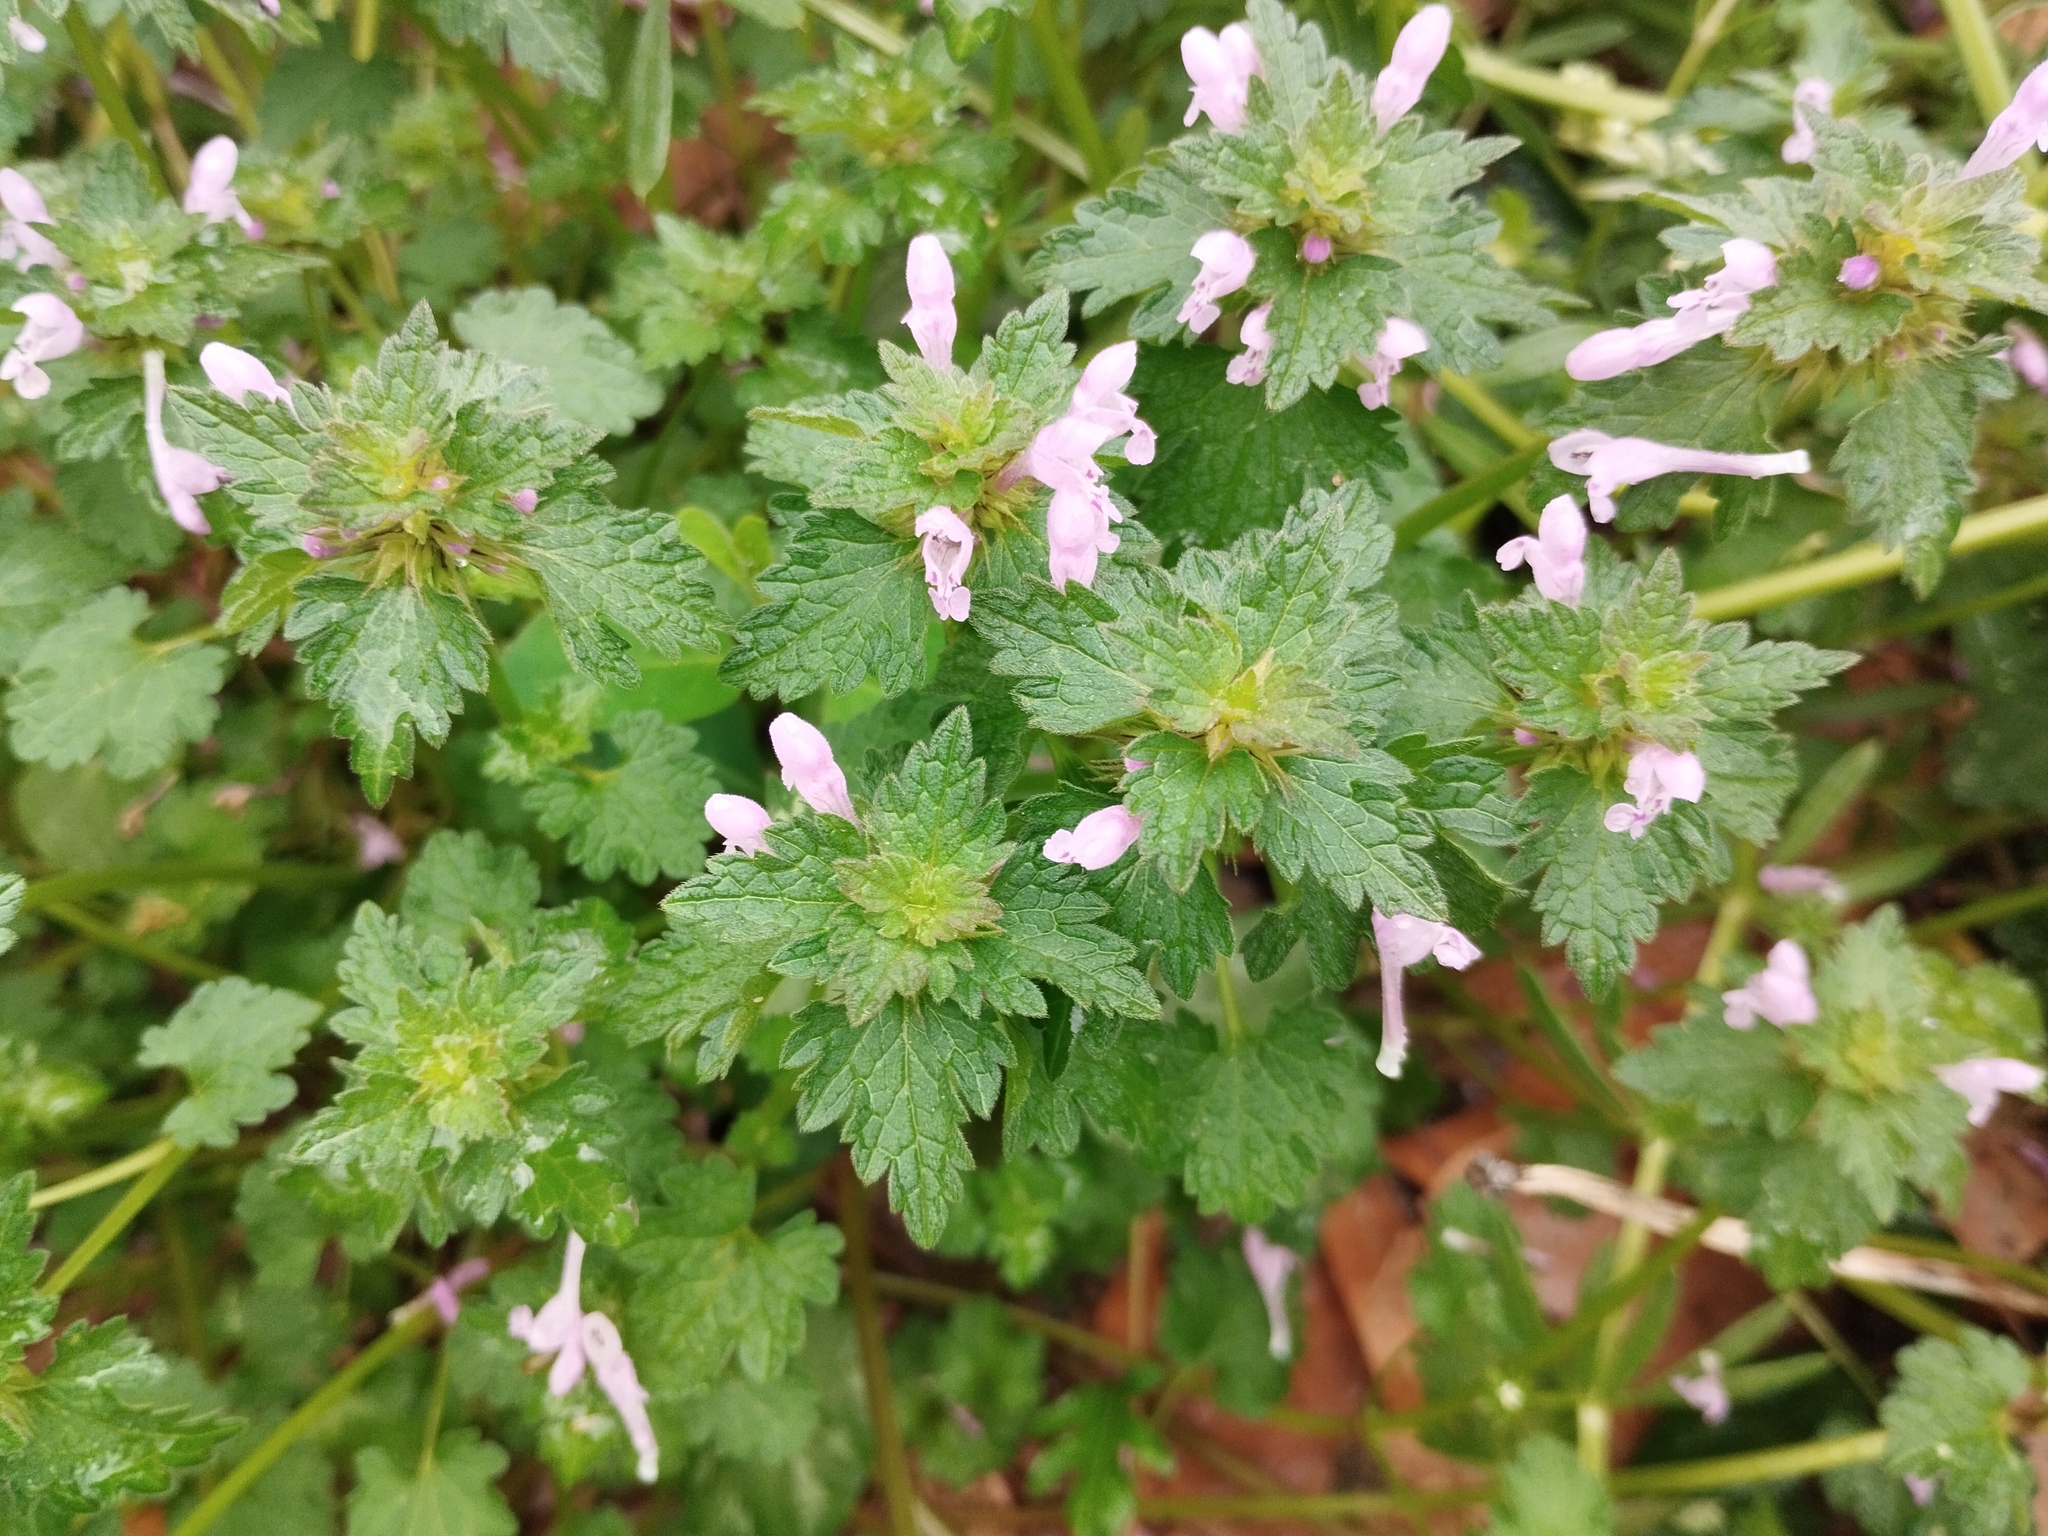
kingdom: Plantae
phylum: Tracheophyta
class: Magnoliopsida
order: Lamiales
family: Lamiaceae
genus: Lamium
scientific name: Lamium hybridum
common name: Cut-leaved dead-nettle
